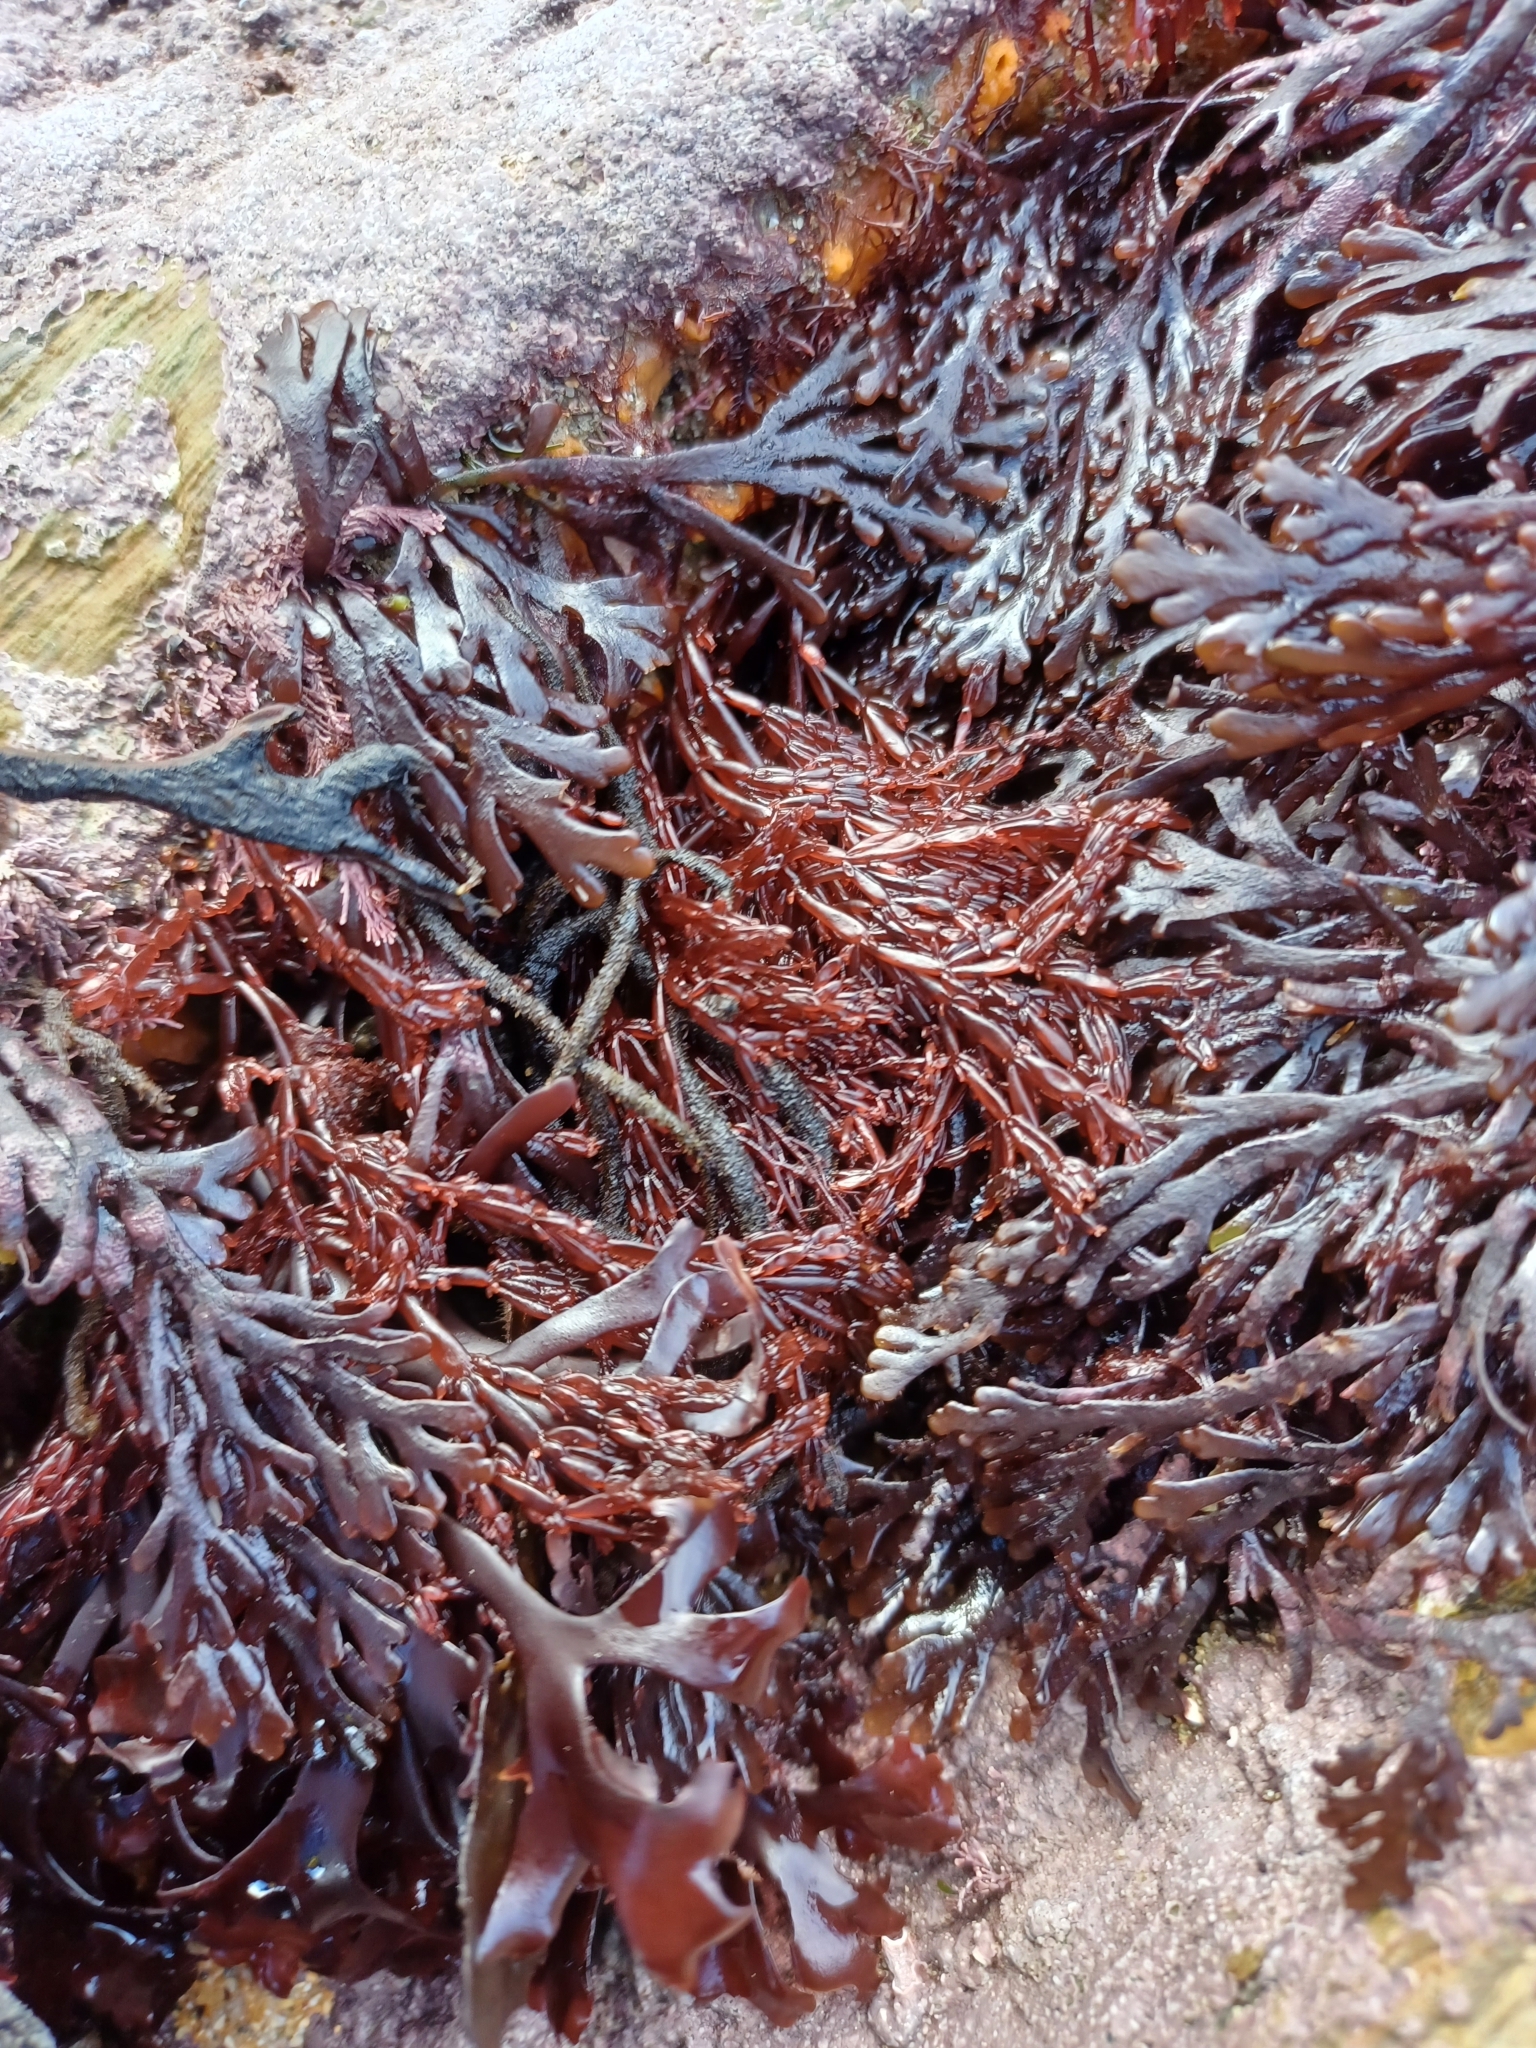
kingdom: Plantae
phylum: Rhodophyta
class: Florideophyceae
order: Rhodymeniales
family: Lomentariaceae
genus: Lomentaria
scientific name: Lomentaria articulata
